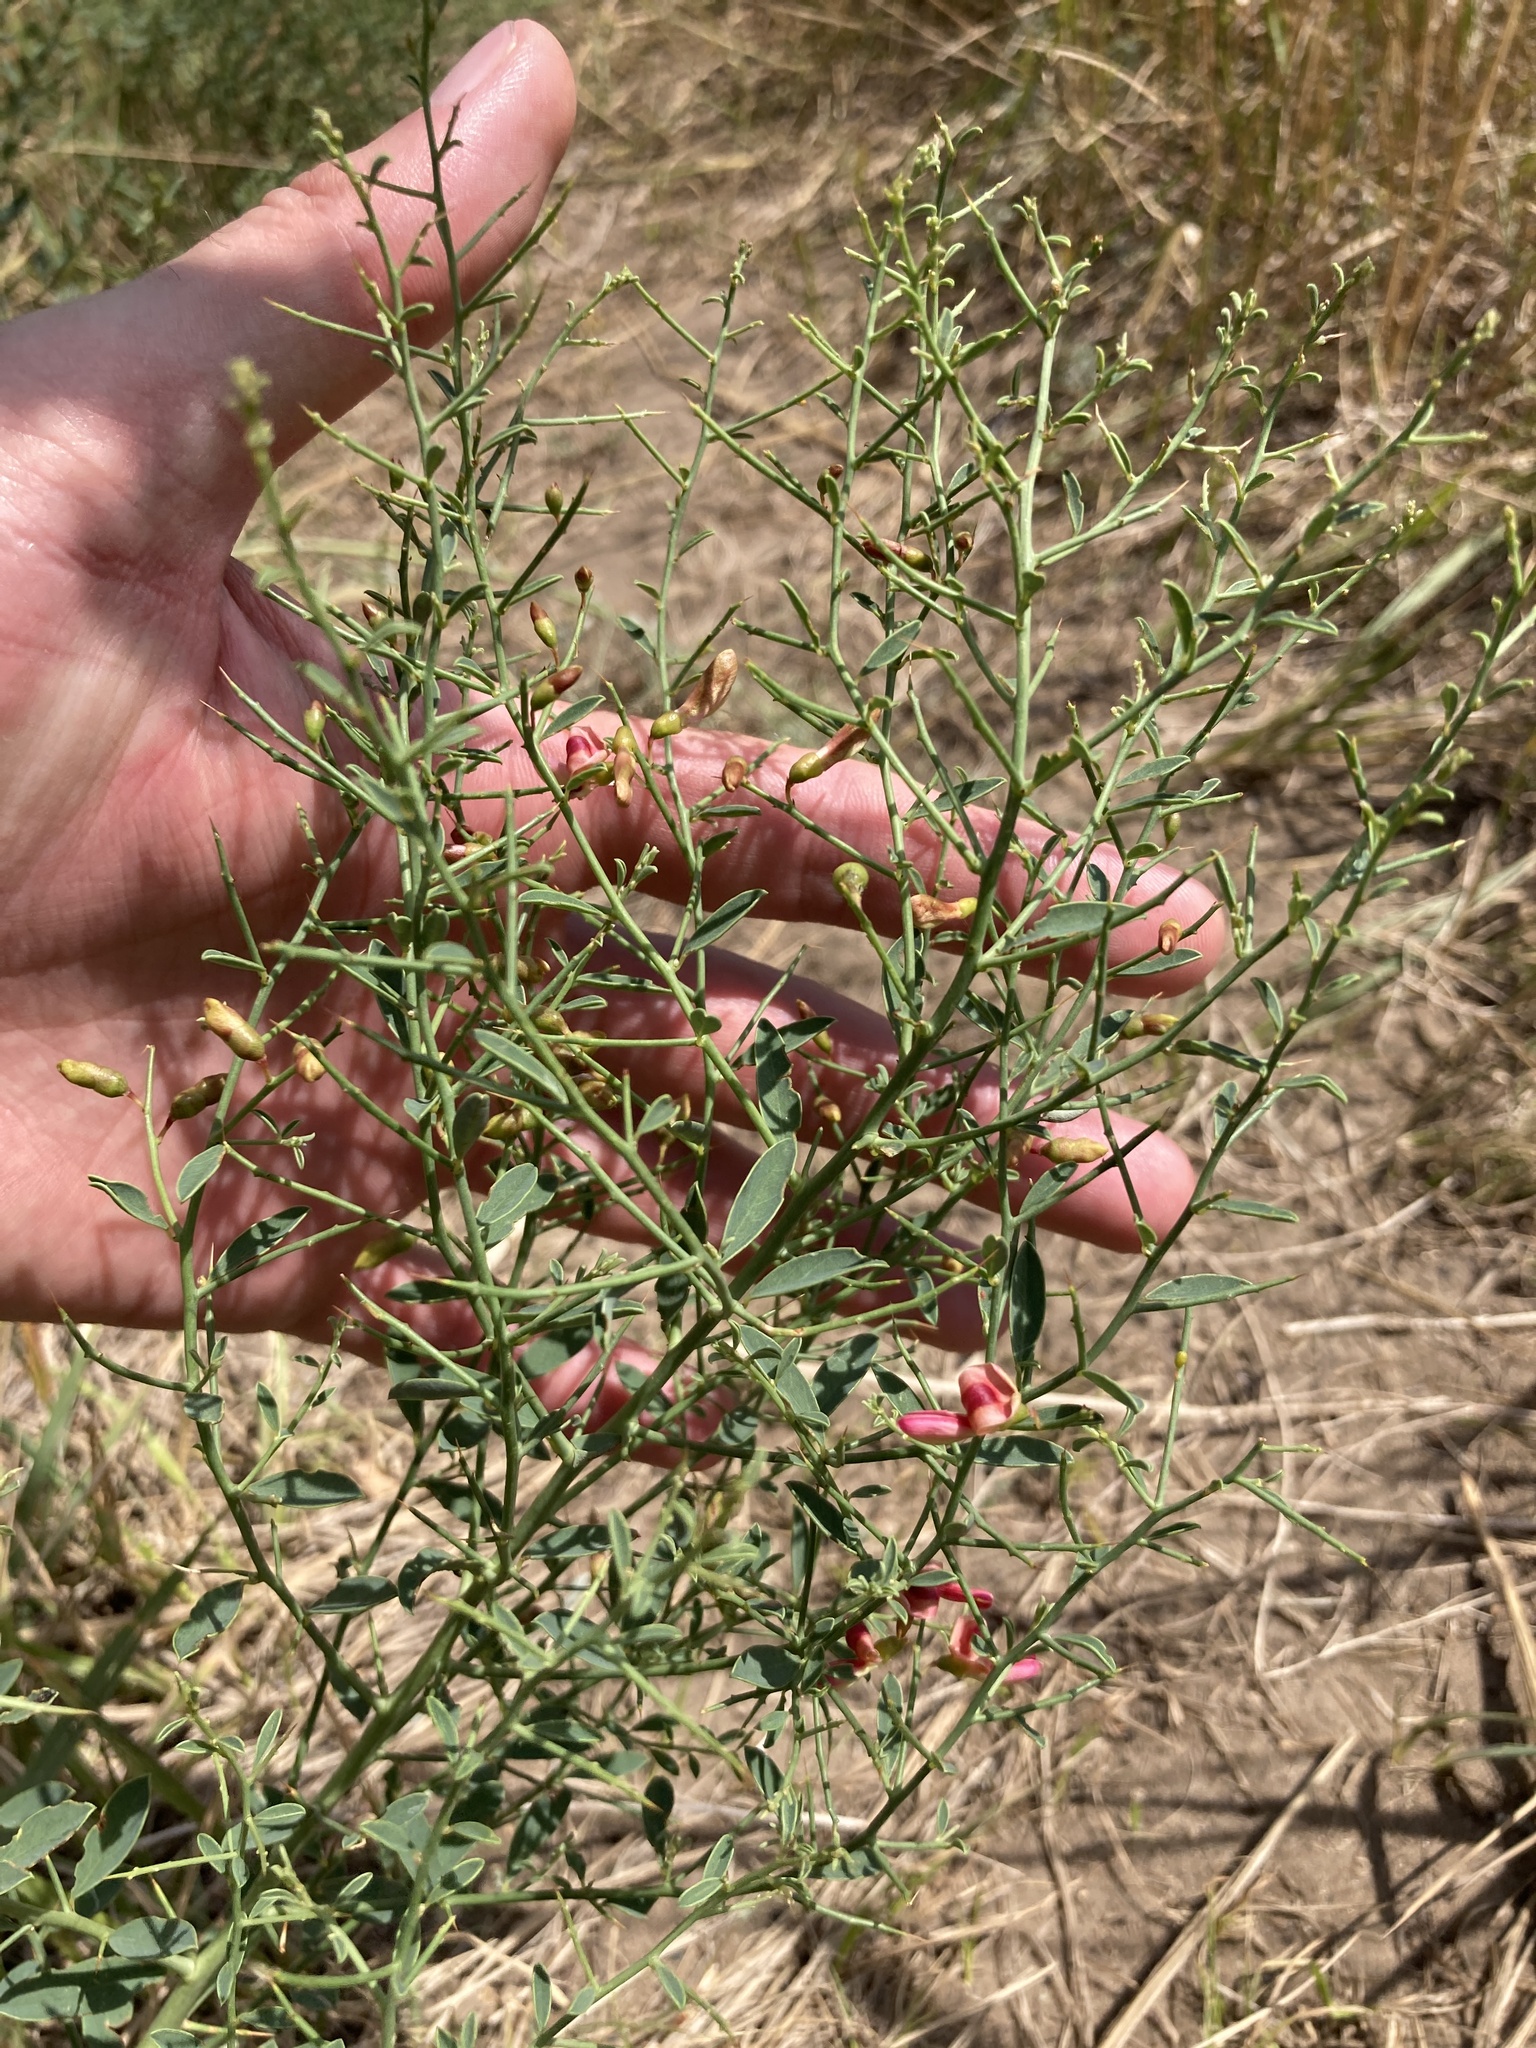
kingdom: Plantae
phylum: Tracheophyta
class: Magnoliopsida
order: Fabales
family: Fabaceae
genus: Alhagi
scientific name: Alhagi pseudalhagi
